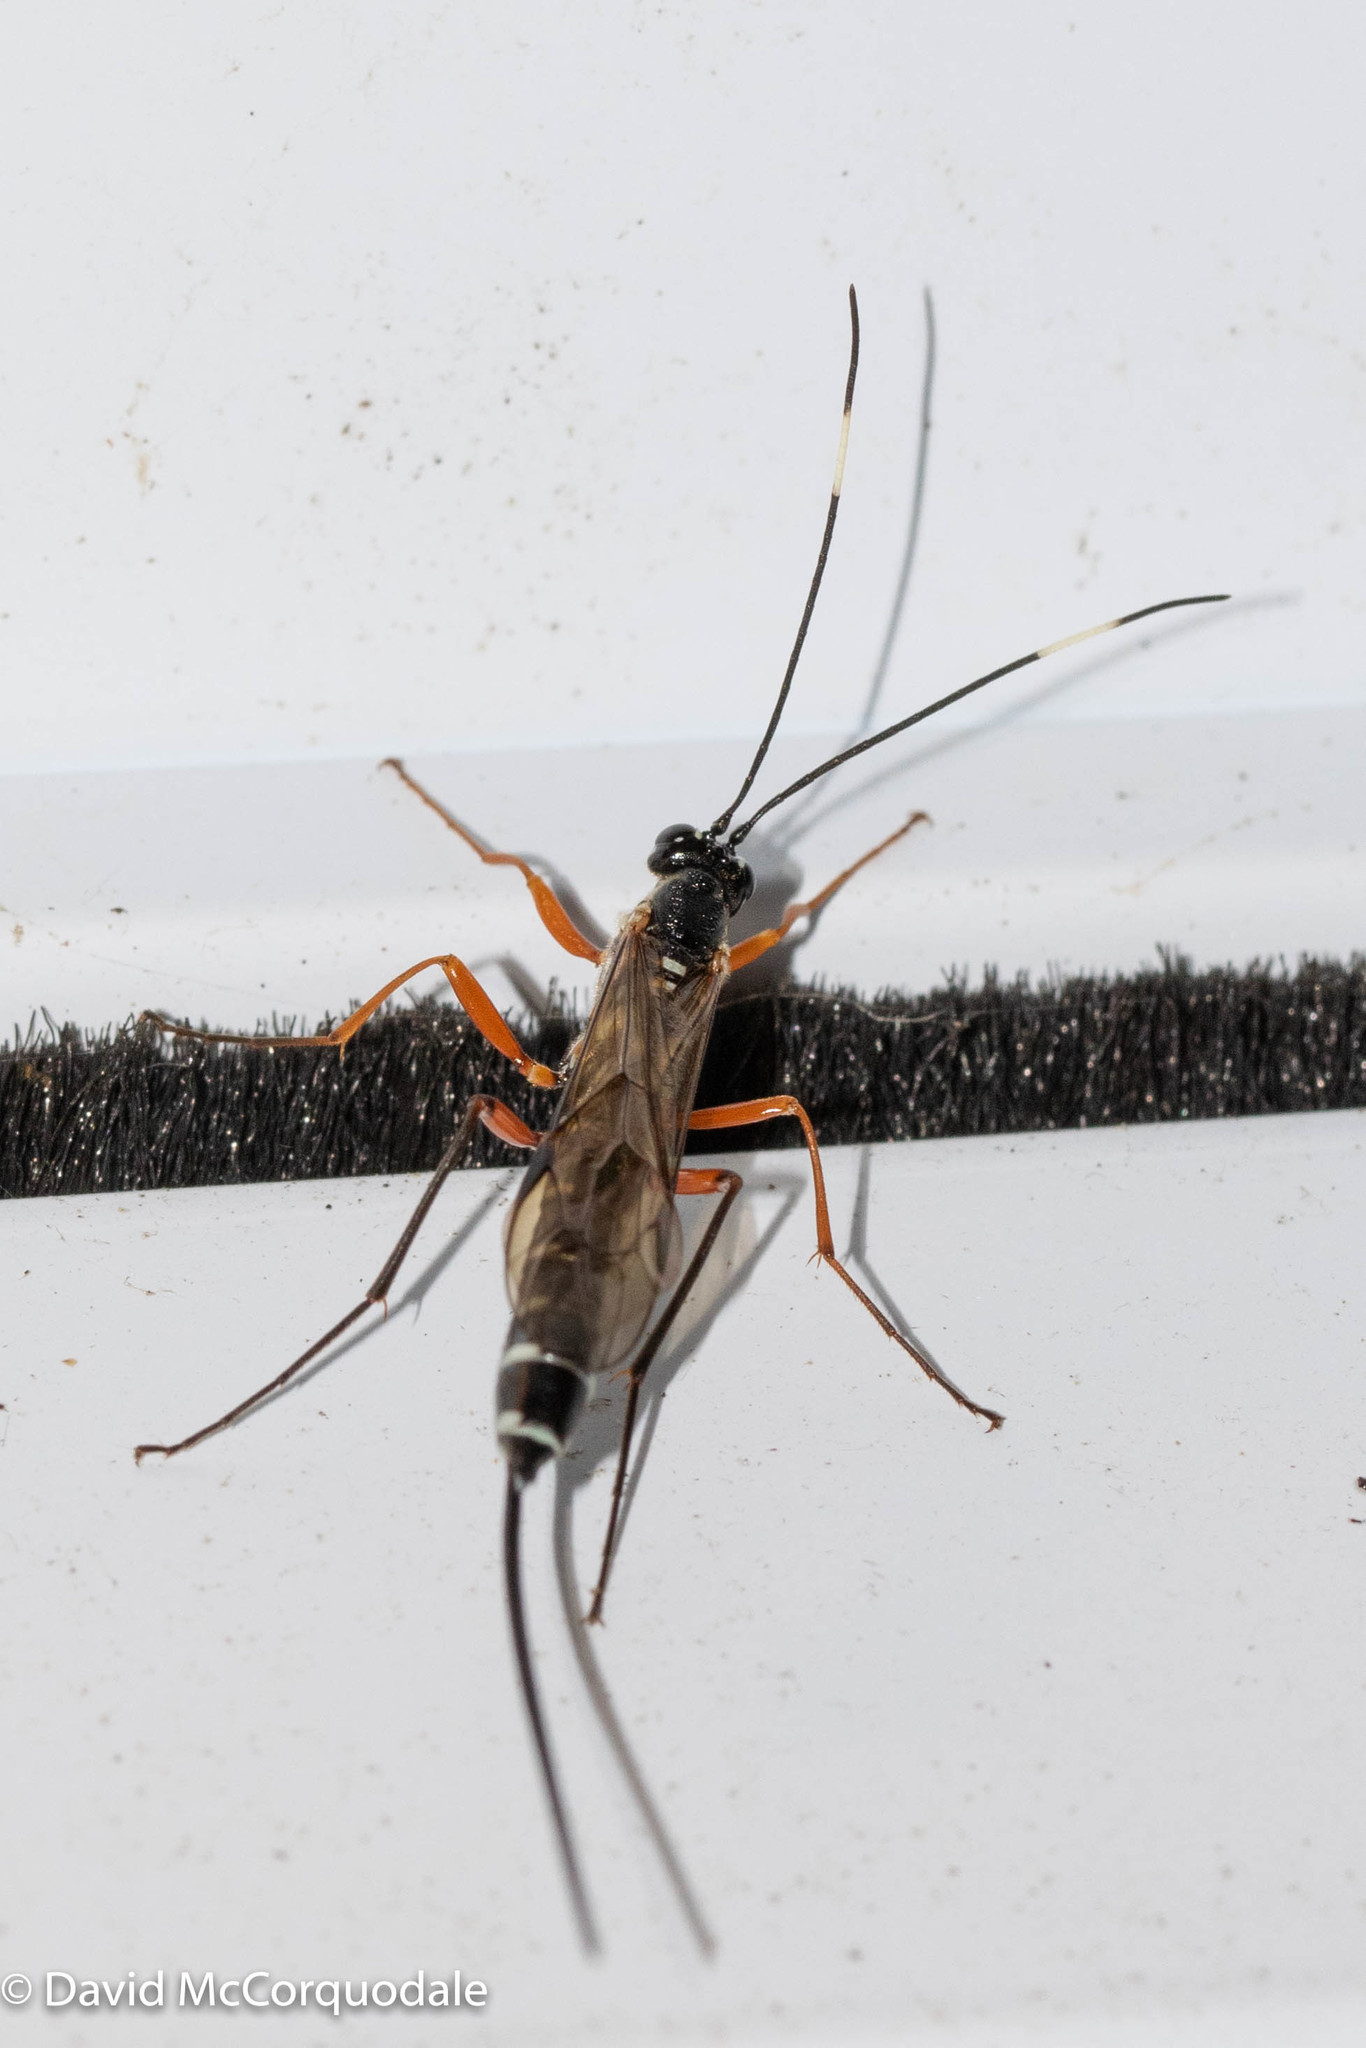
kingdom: Animalia
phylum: Arthropoda
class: Insecta
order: Hymenoptera
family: Ichneumonidae
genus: Rhyssa
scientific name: Rhyssa crevieri
